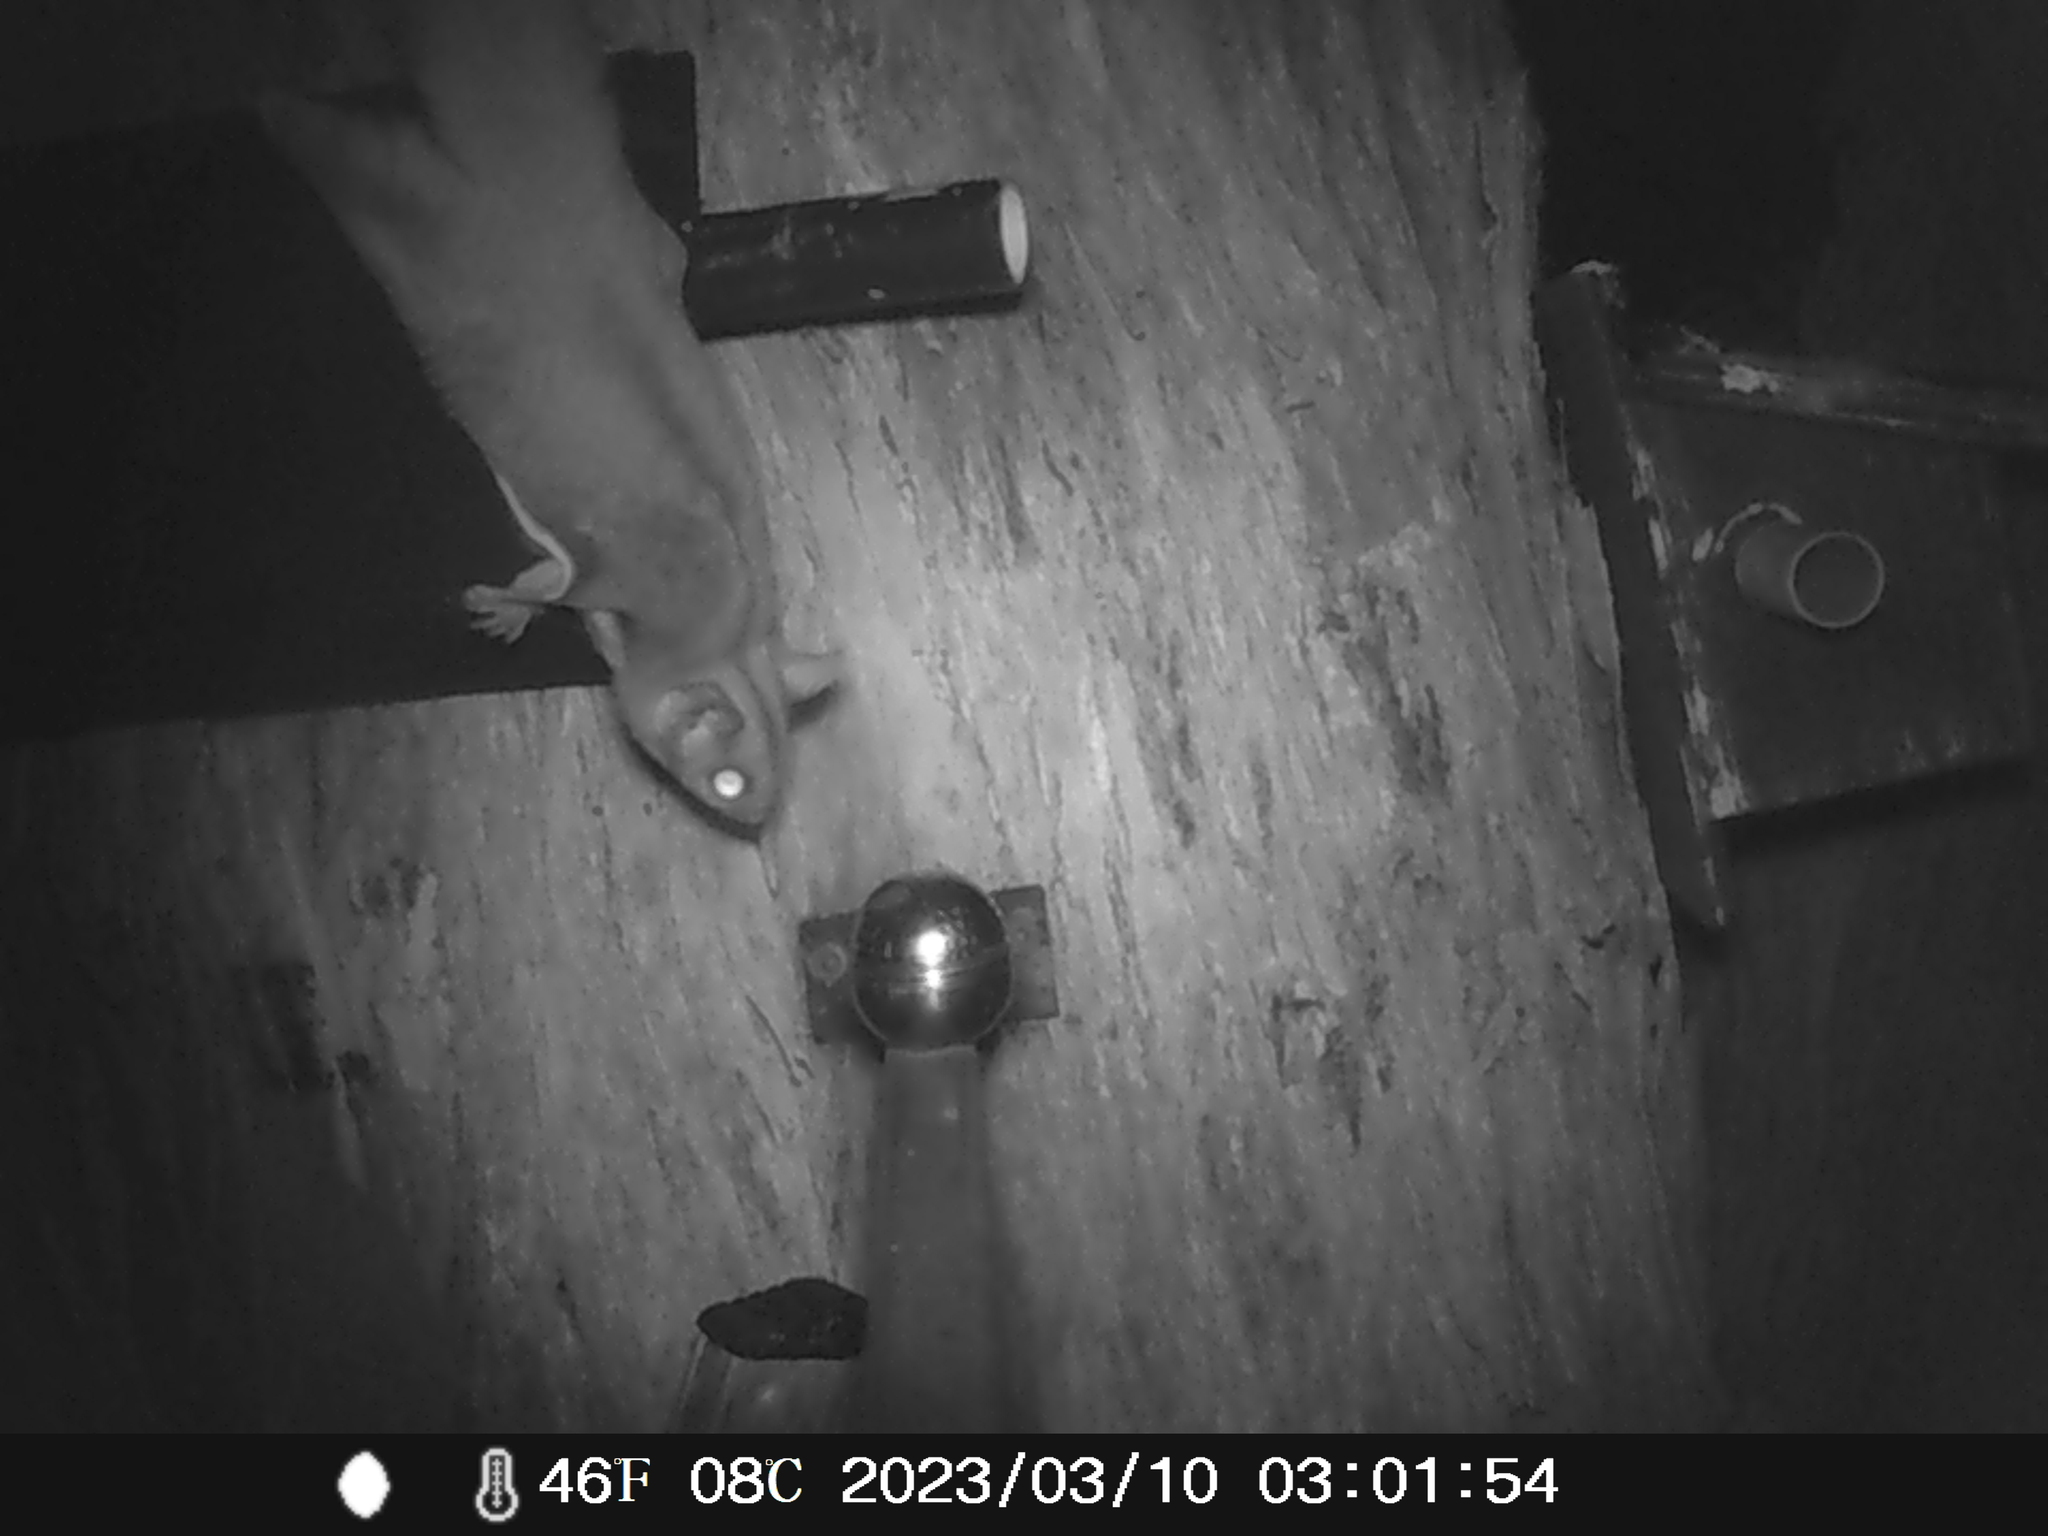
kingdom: Animalia
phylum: Chordata
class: Mammalia
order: Diprotodontia
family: Petauridae
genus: Petaurus
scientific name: Petaurus breviceps
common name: Sugar glider
